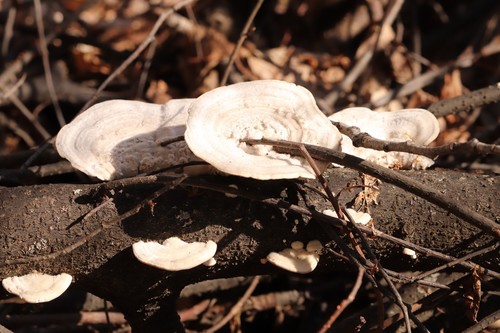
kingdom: Fungi
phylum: Basidiomycota
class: Agaricomycetes
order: Polyporales
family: Polyporaceae
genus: Trametes
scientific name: Trametes hirsuta
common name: Hairy bracket
